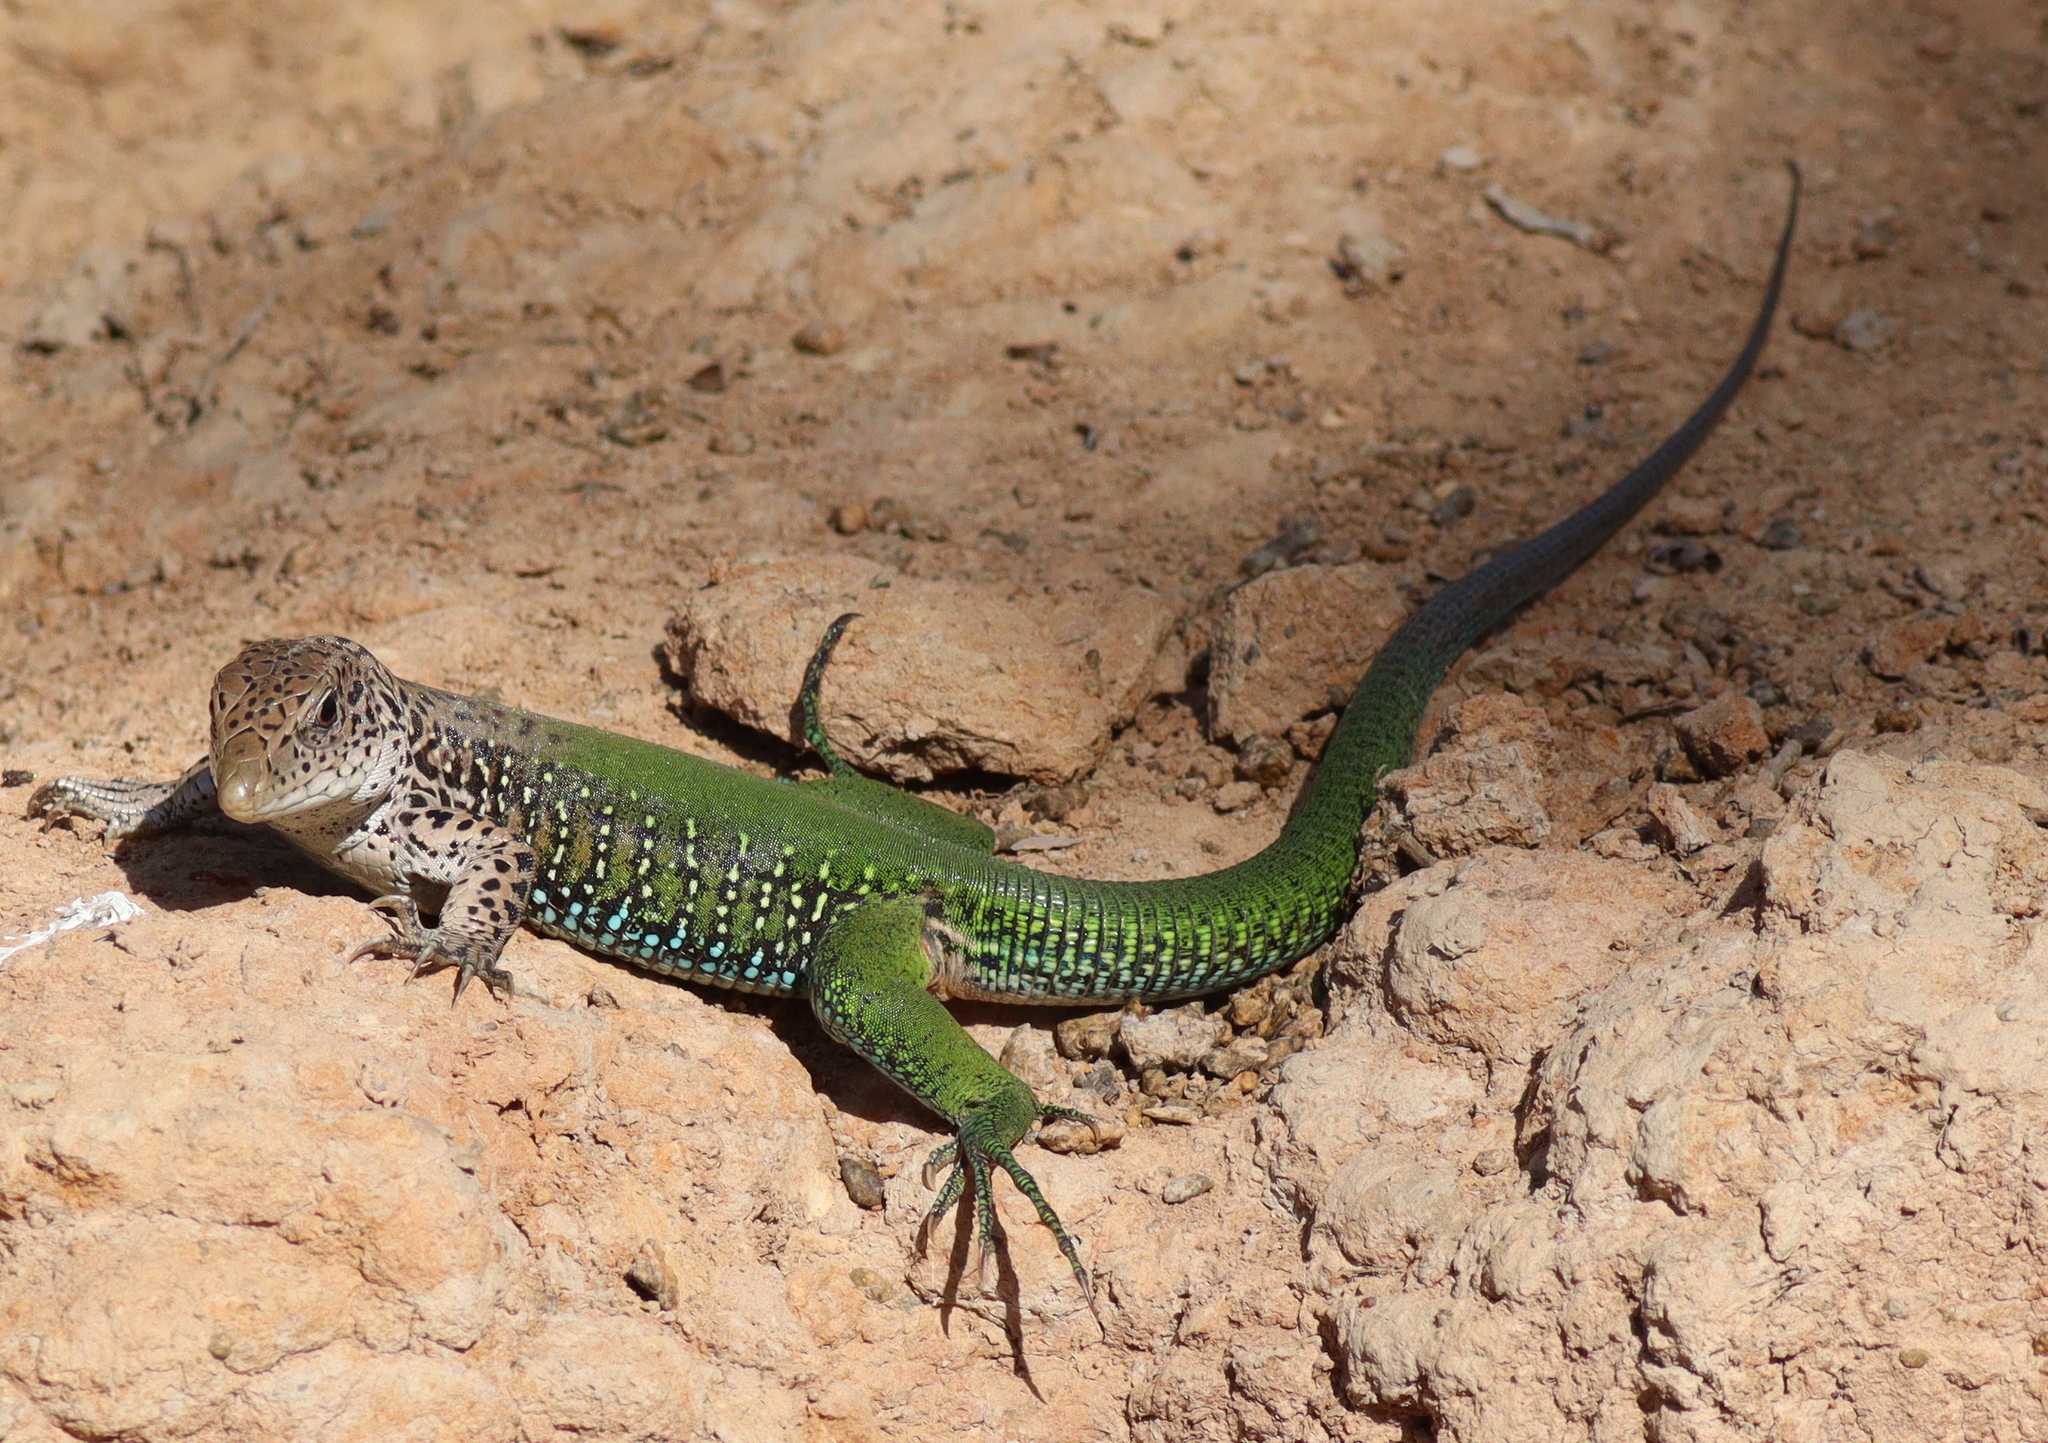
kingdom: Animalia
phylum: Chordata
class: Squamata
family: Teiidae
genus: Ameiva
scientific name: Ameiva ameiva
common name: Giant ameiva
